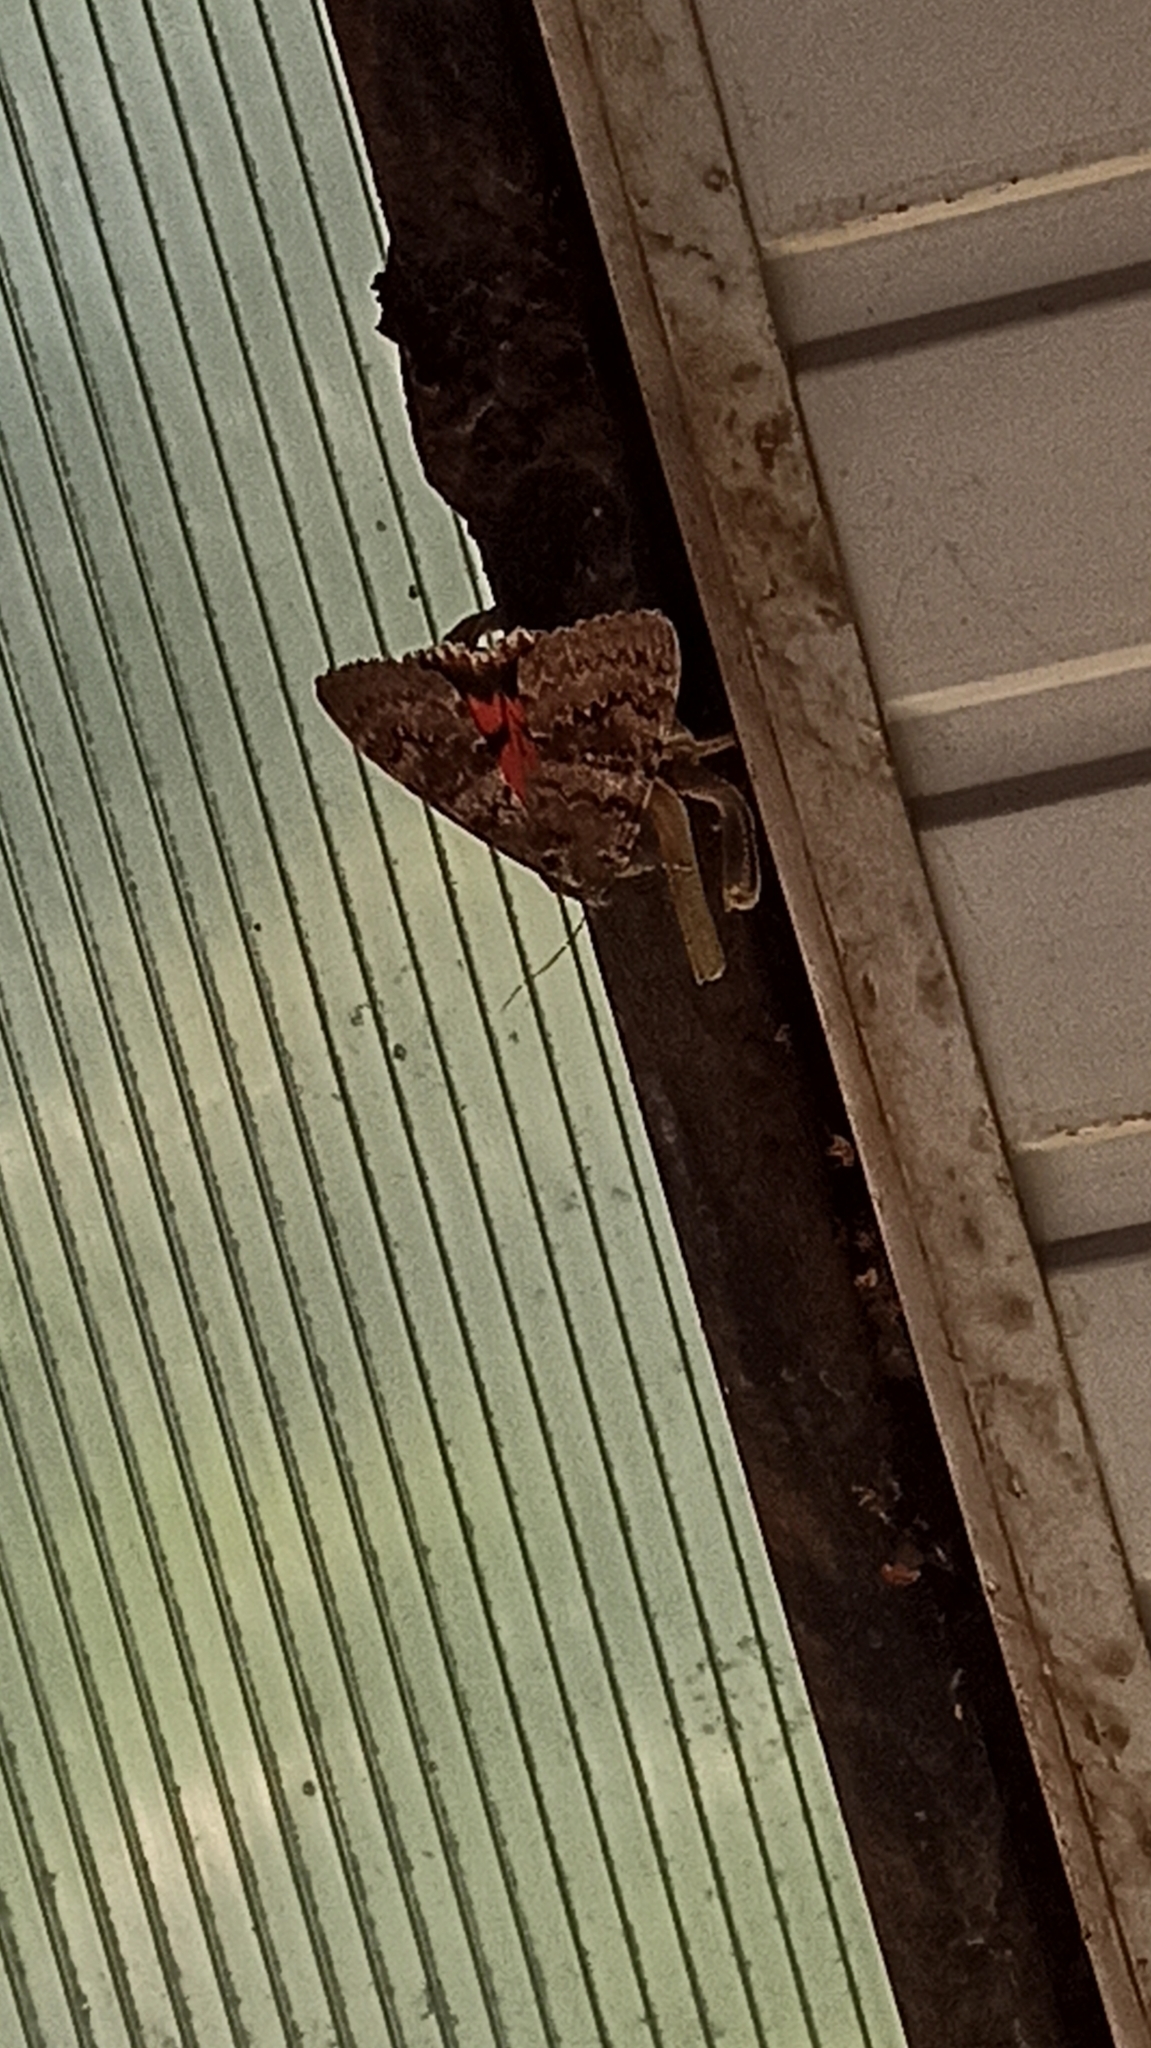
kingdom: Animalia
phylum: Arthropoda
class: Insecta
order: Lepidoptera
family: Erebidae
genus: Catocala
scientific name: Catocala elocata
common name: French red underwing
